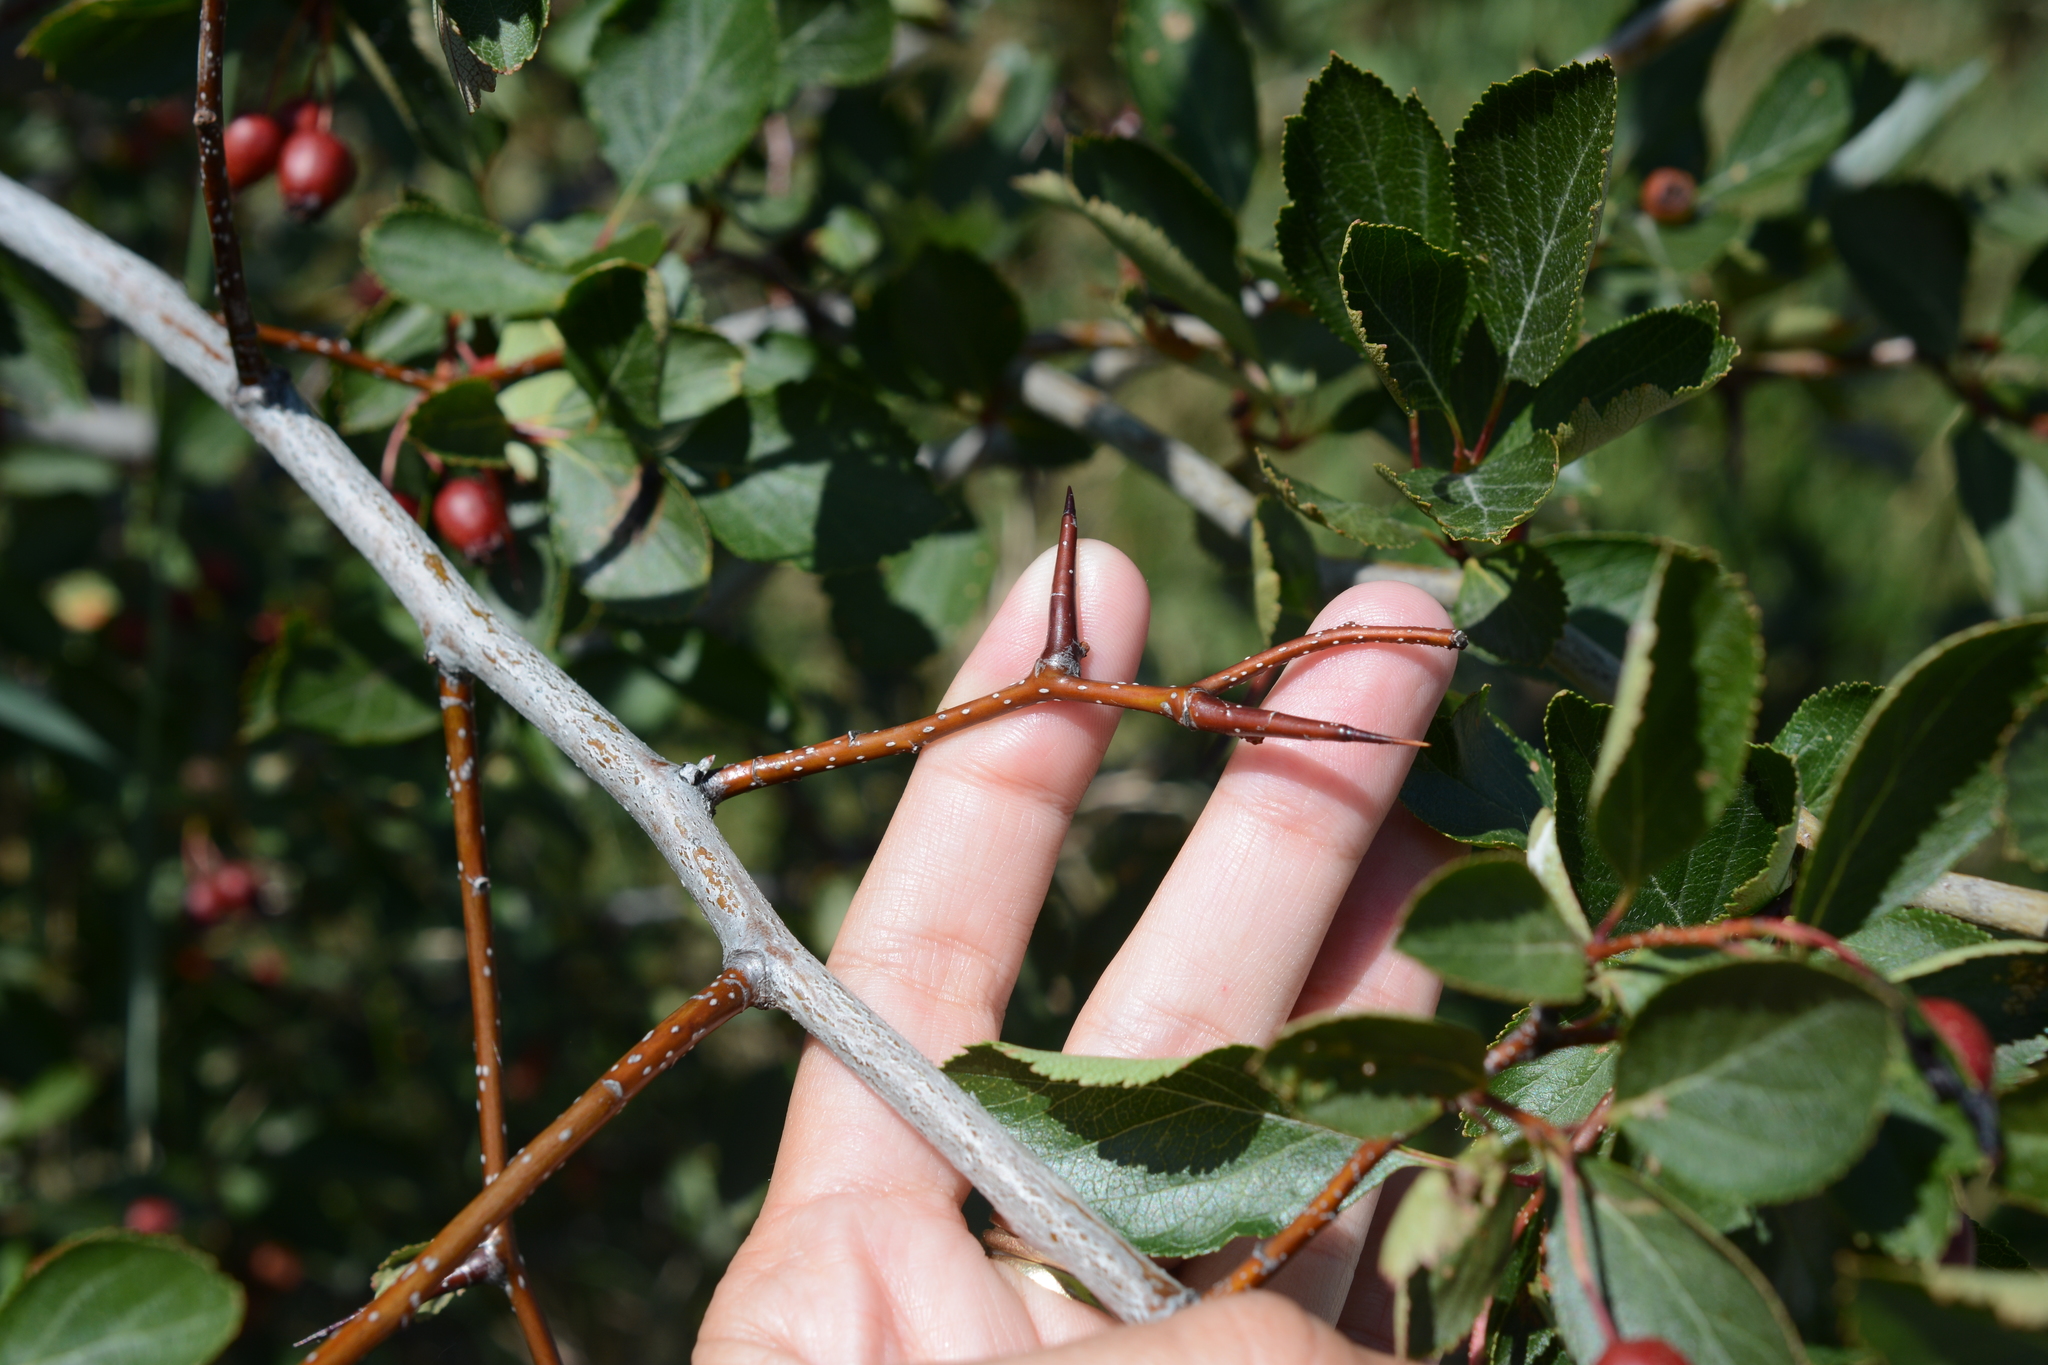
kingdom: Plantae
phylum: Tracheophyta
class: Magnoliopsida
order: Rosales
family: Rosaceae
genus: Crataegus
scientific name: Crataegus douglasii
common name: Black hawthorn
